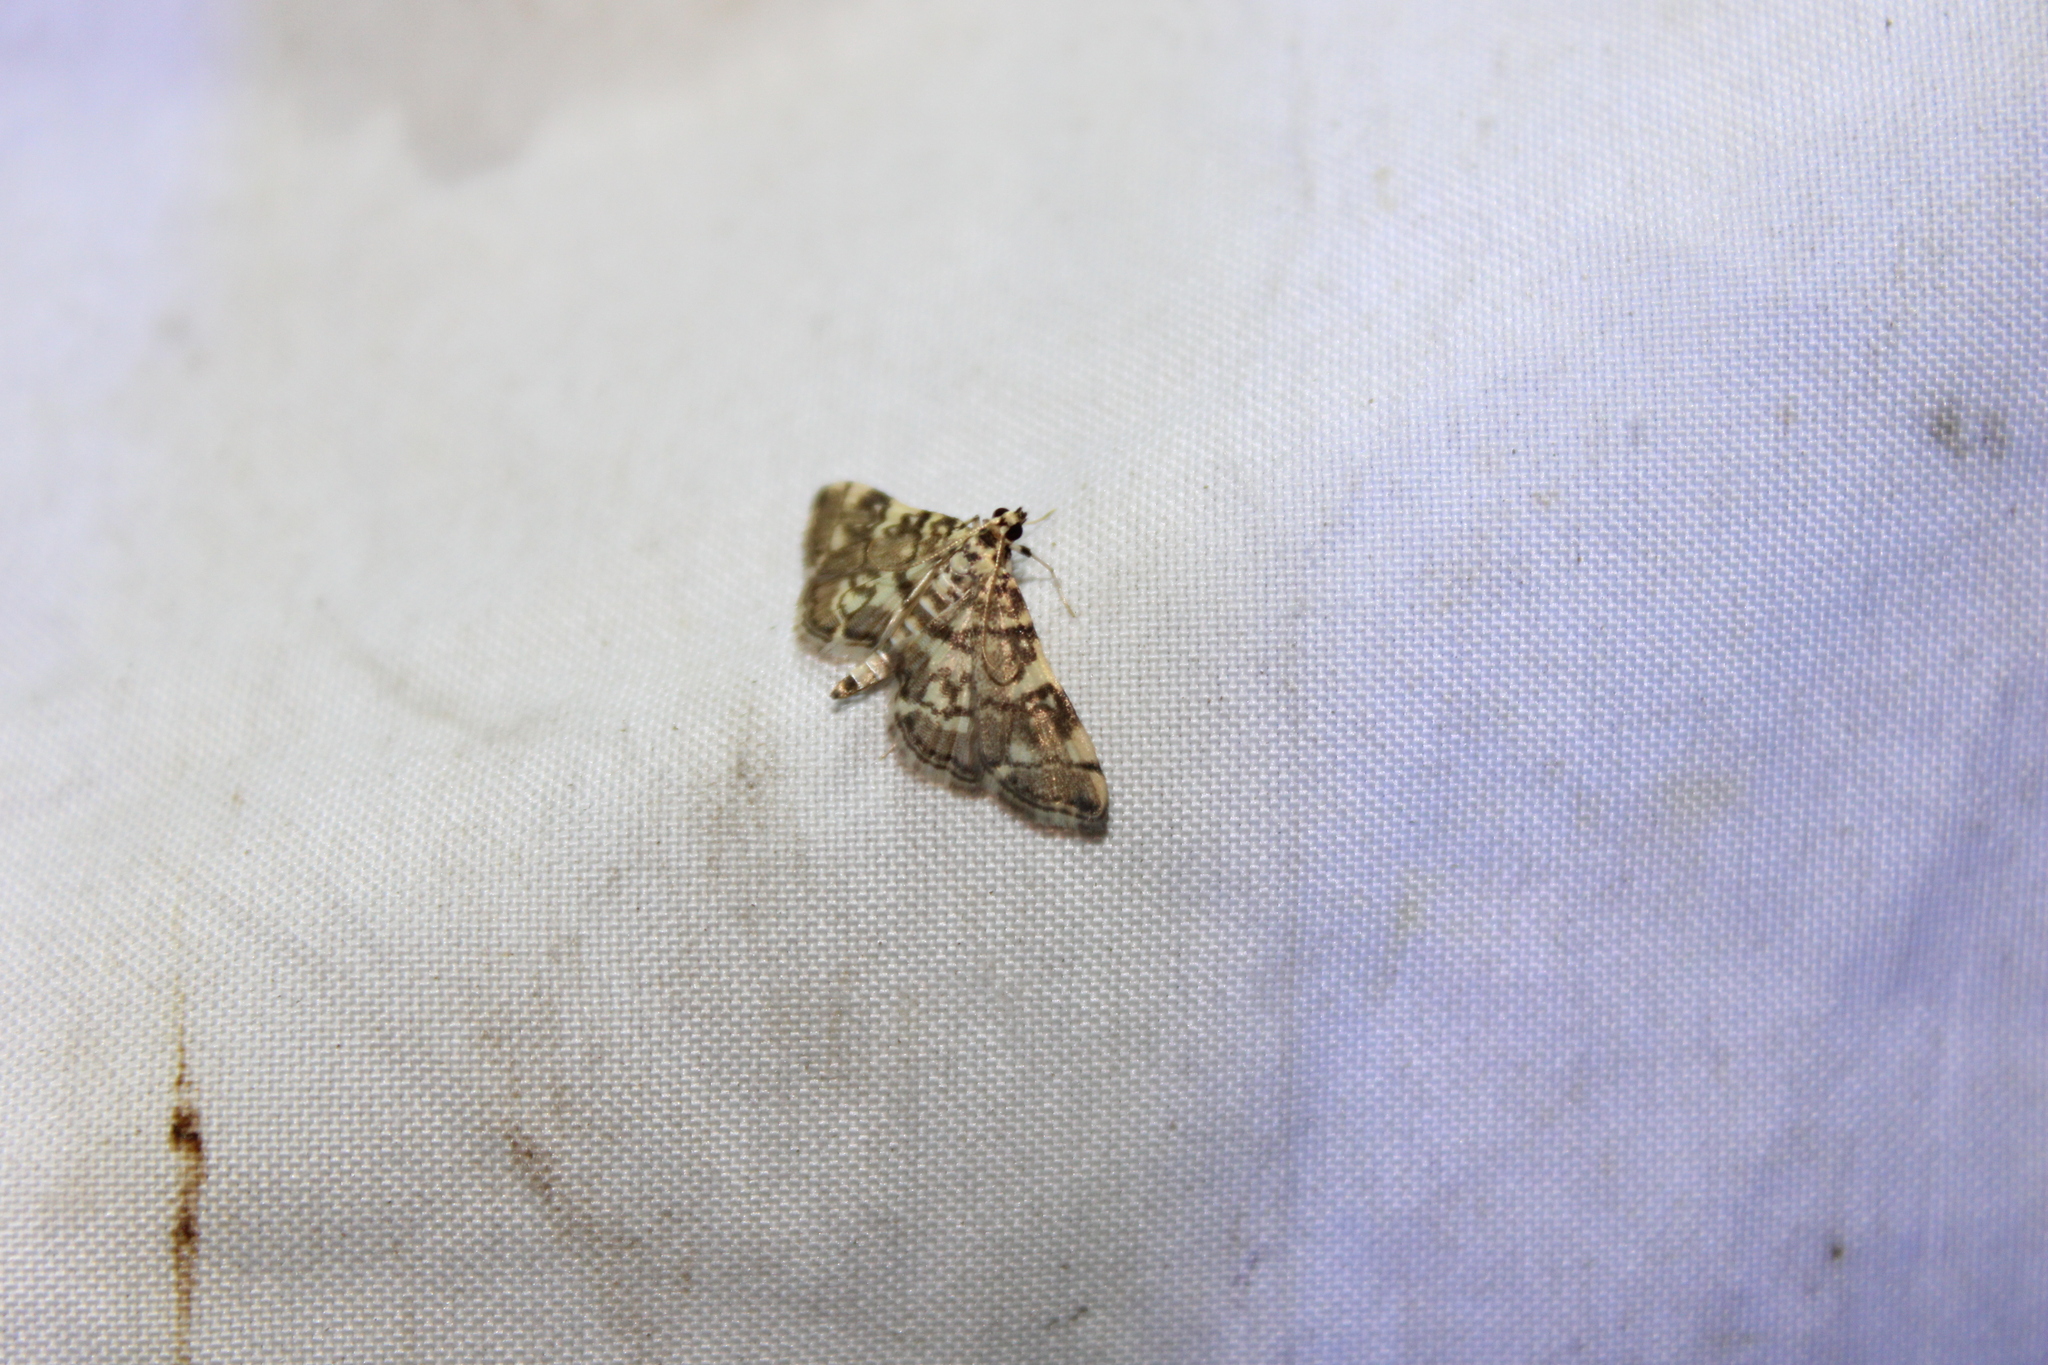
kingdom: Animalia
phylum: Arthropoda
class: Insecta
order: Lepidoptera
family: Crambidae
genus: Apogeshna
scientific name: Apogeshna stenialis
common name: Checkered apogeshna moth
